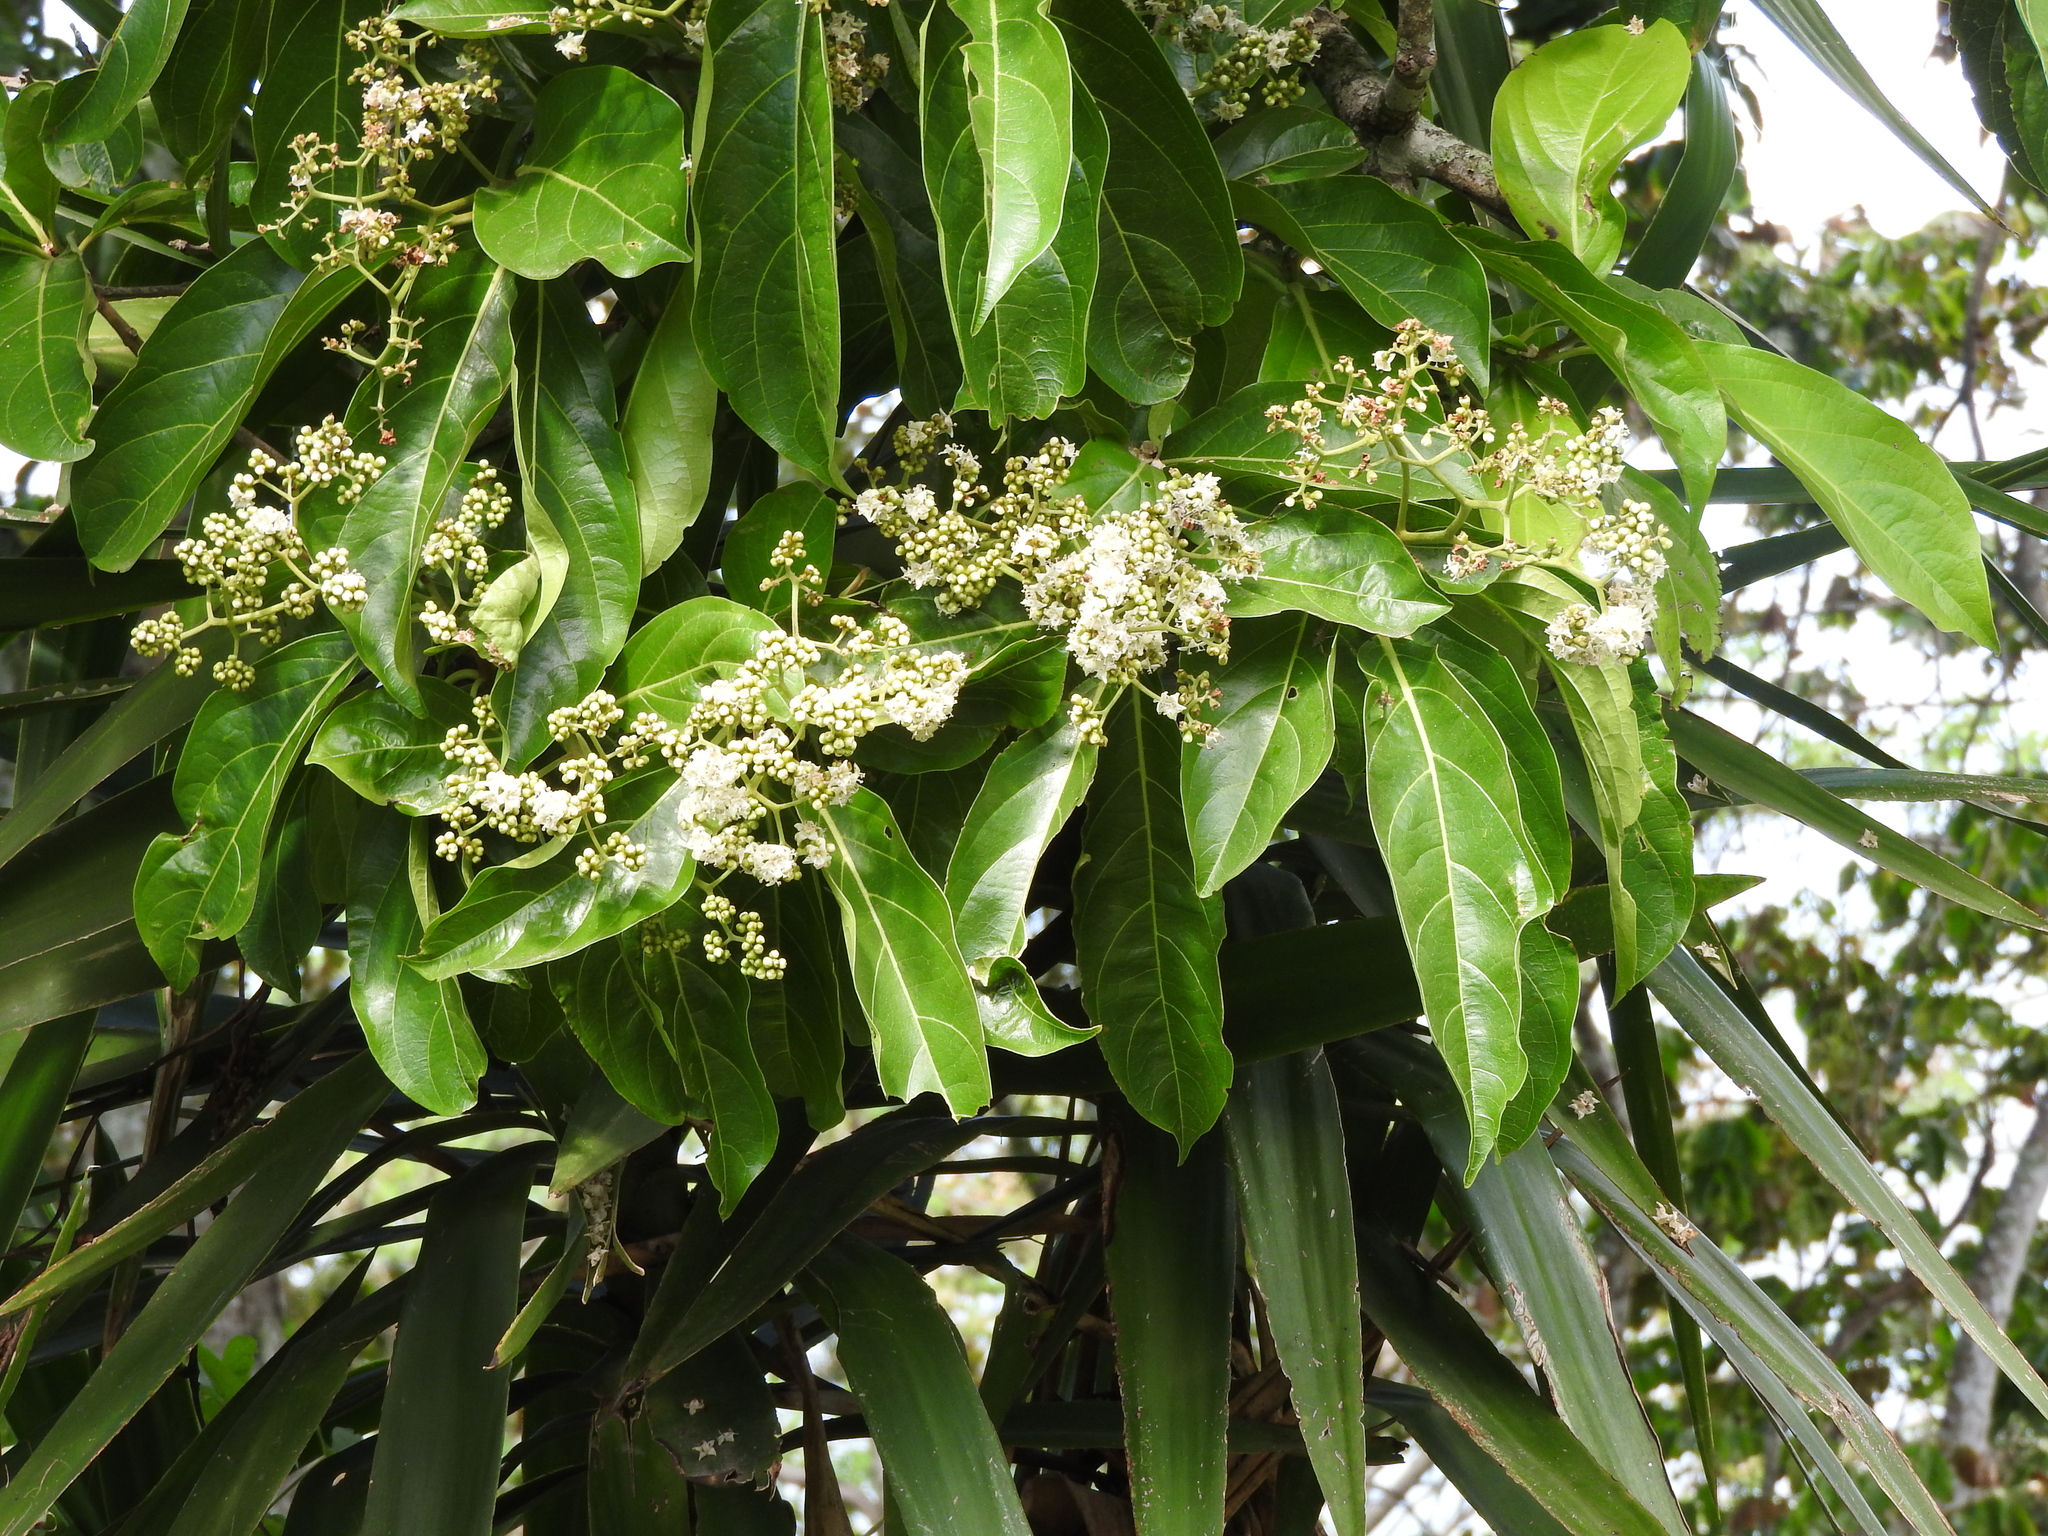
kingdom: Plantae
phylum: Tracheophyta
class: Magnoliopsida
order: Boraginales
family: Cordiaceae
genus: Cordia
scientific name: Cordia collococca
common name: Clammy cherry
